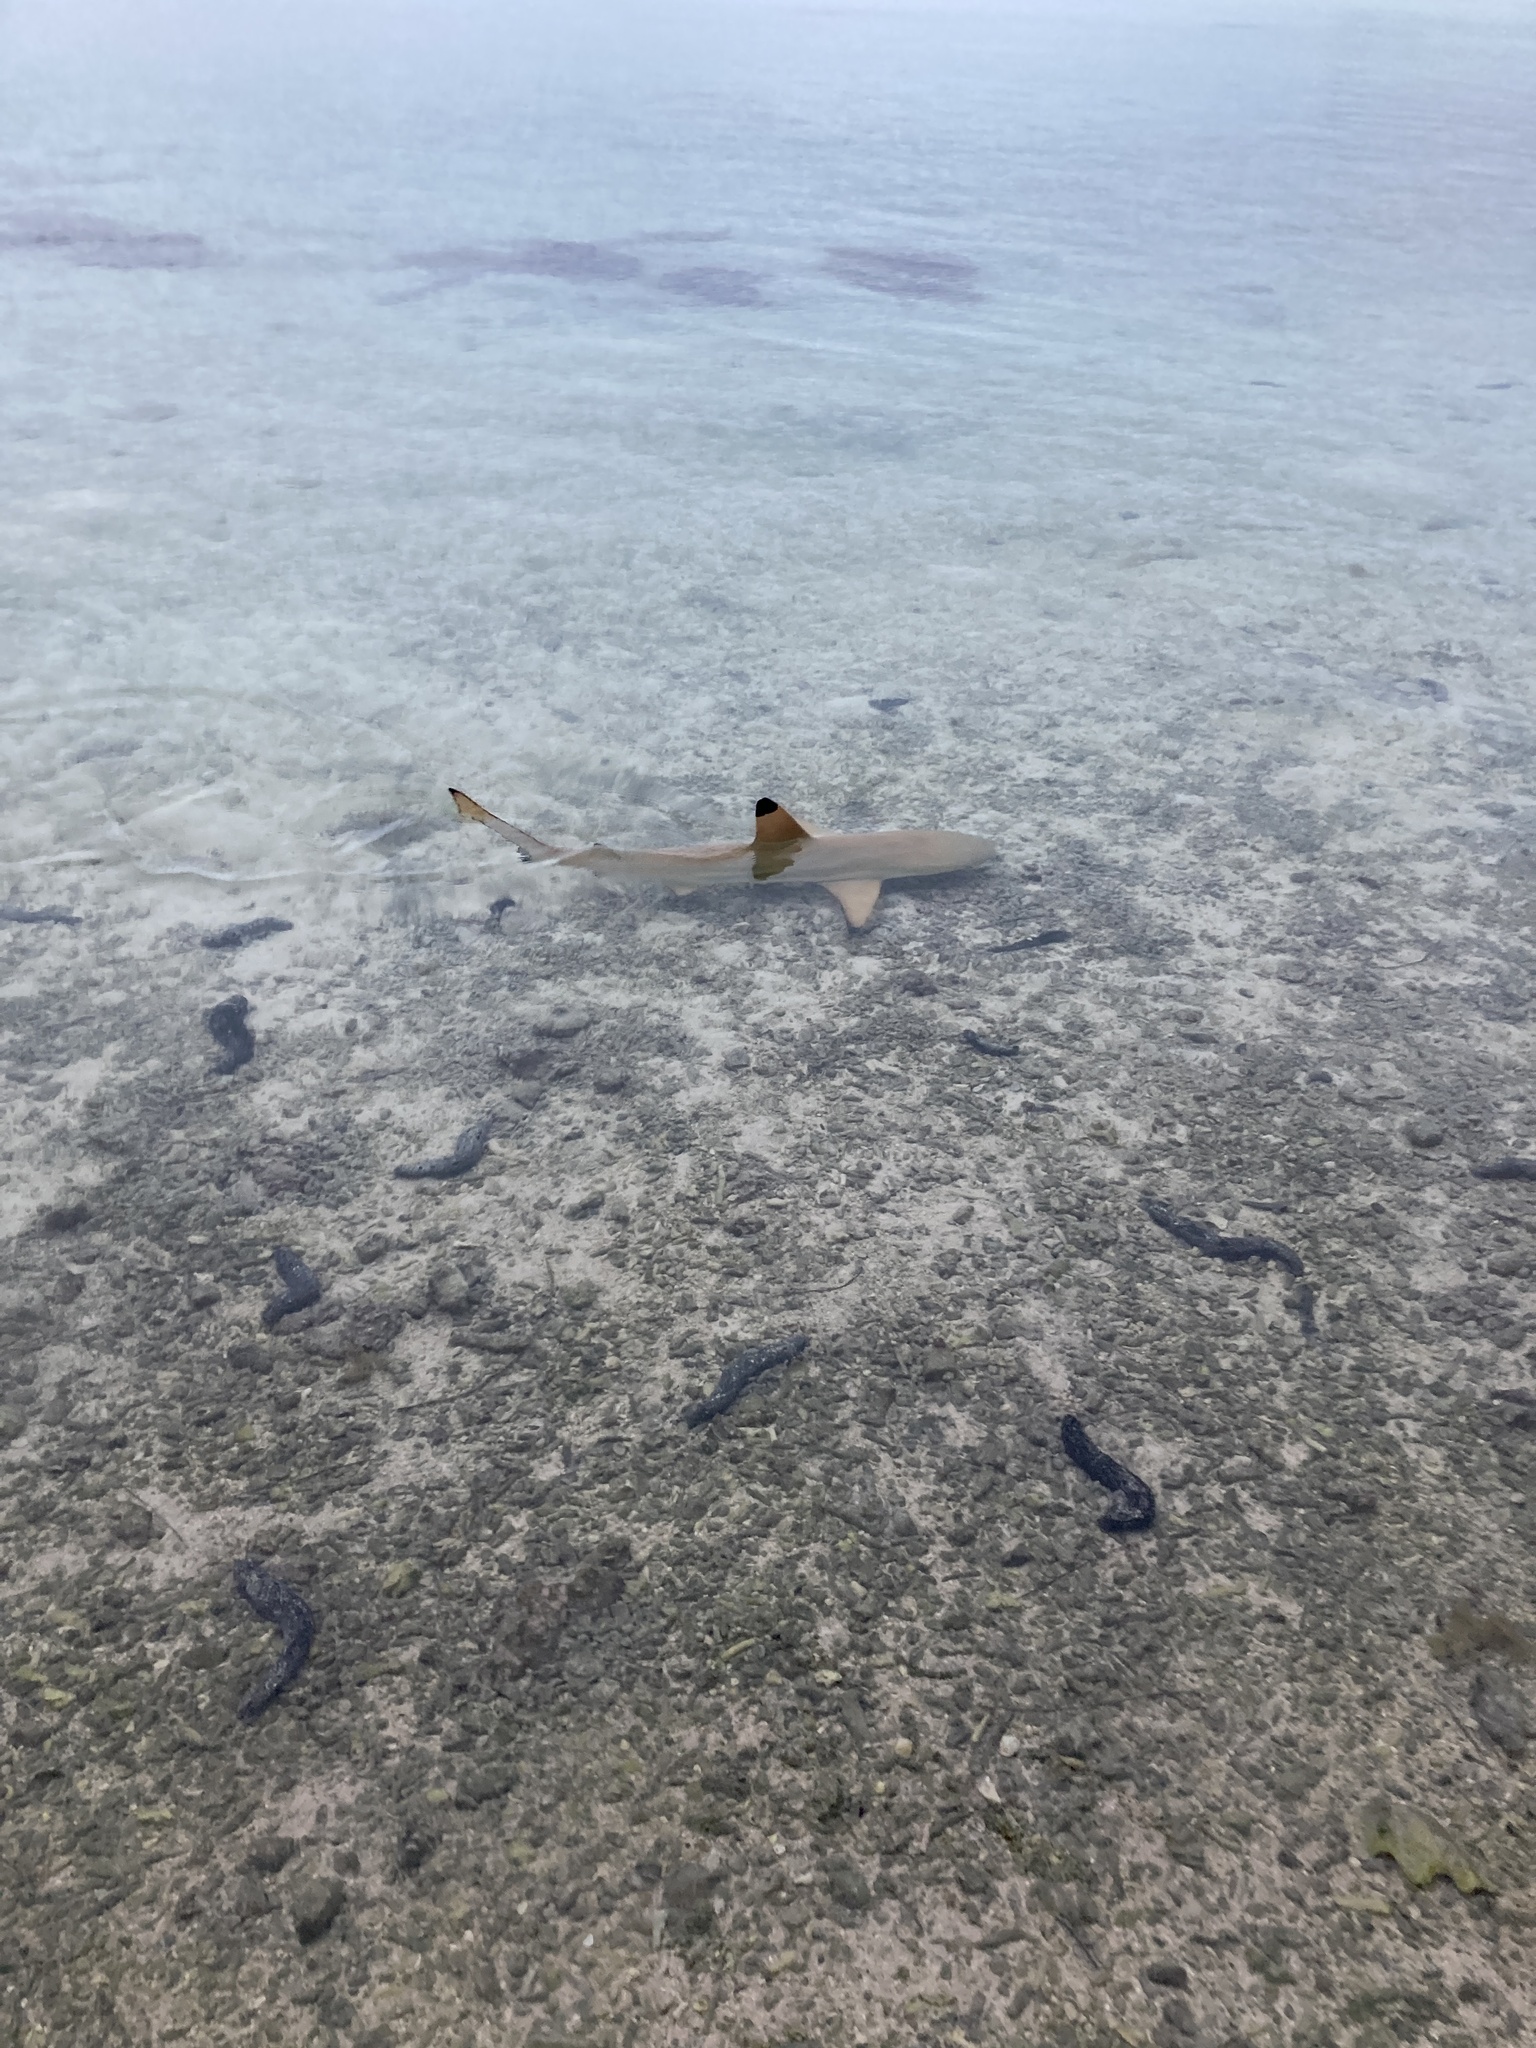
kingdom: Animalia
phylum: Chordata
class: Elasmobranchii
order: Carcharhiniformes
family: Carcharhinidae
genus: Carcharhinus
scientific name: Carcharhinus melanopterus
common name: Blacktip reef shark
